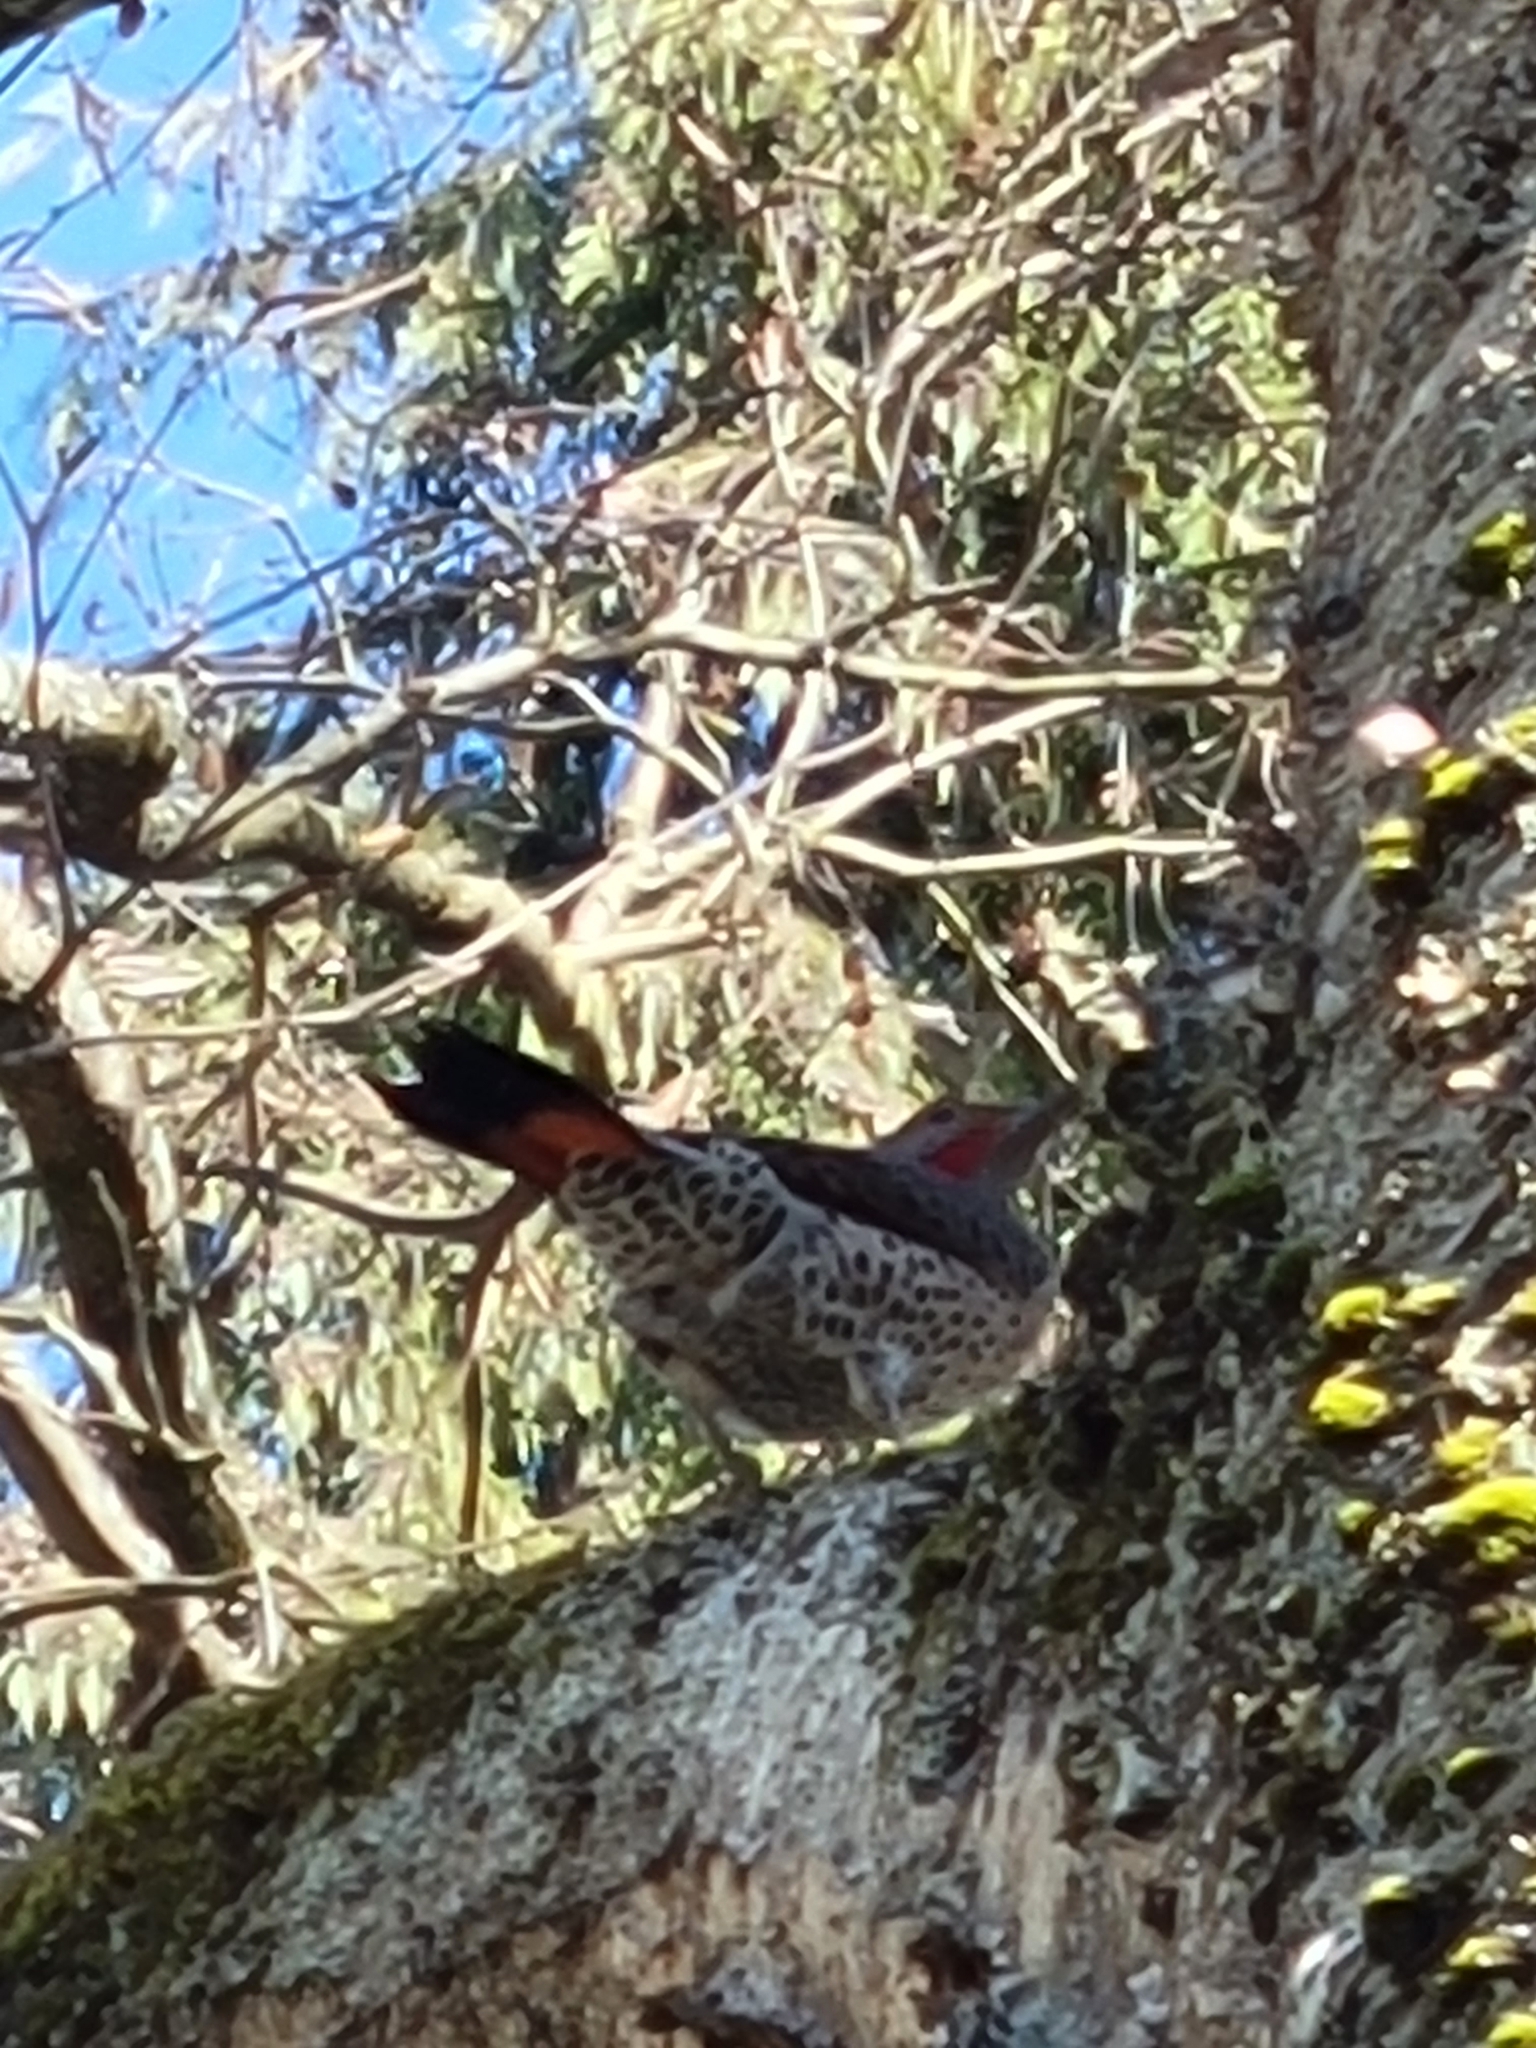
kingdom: Animalia
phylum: Chordata
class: Aves
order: Piciformes
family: Picidae
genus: Colaptes
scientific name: Colaptes auratus
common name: Northern flicker
